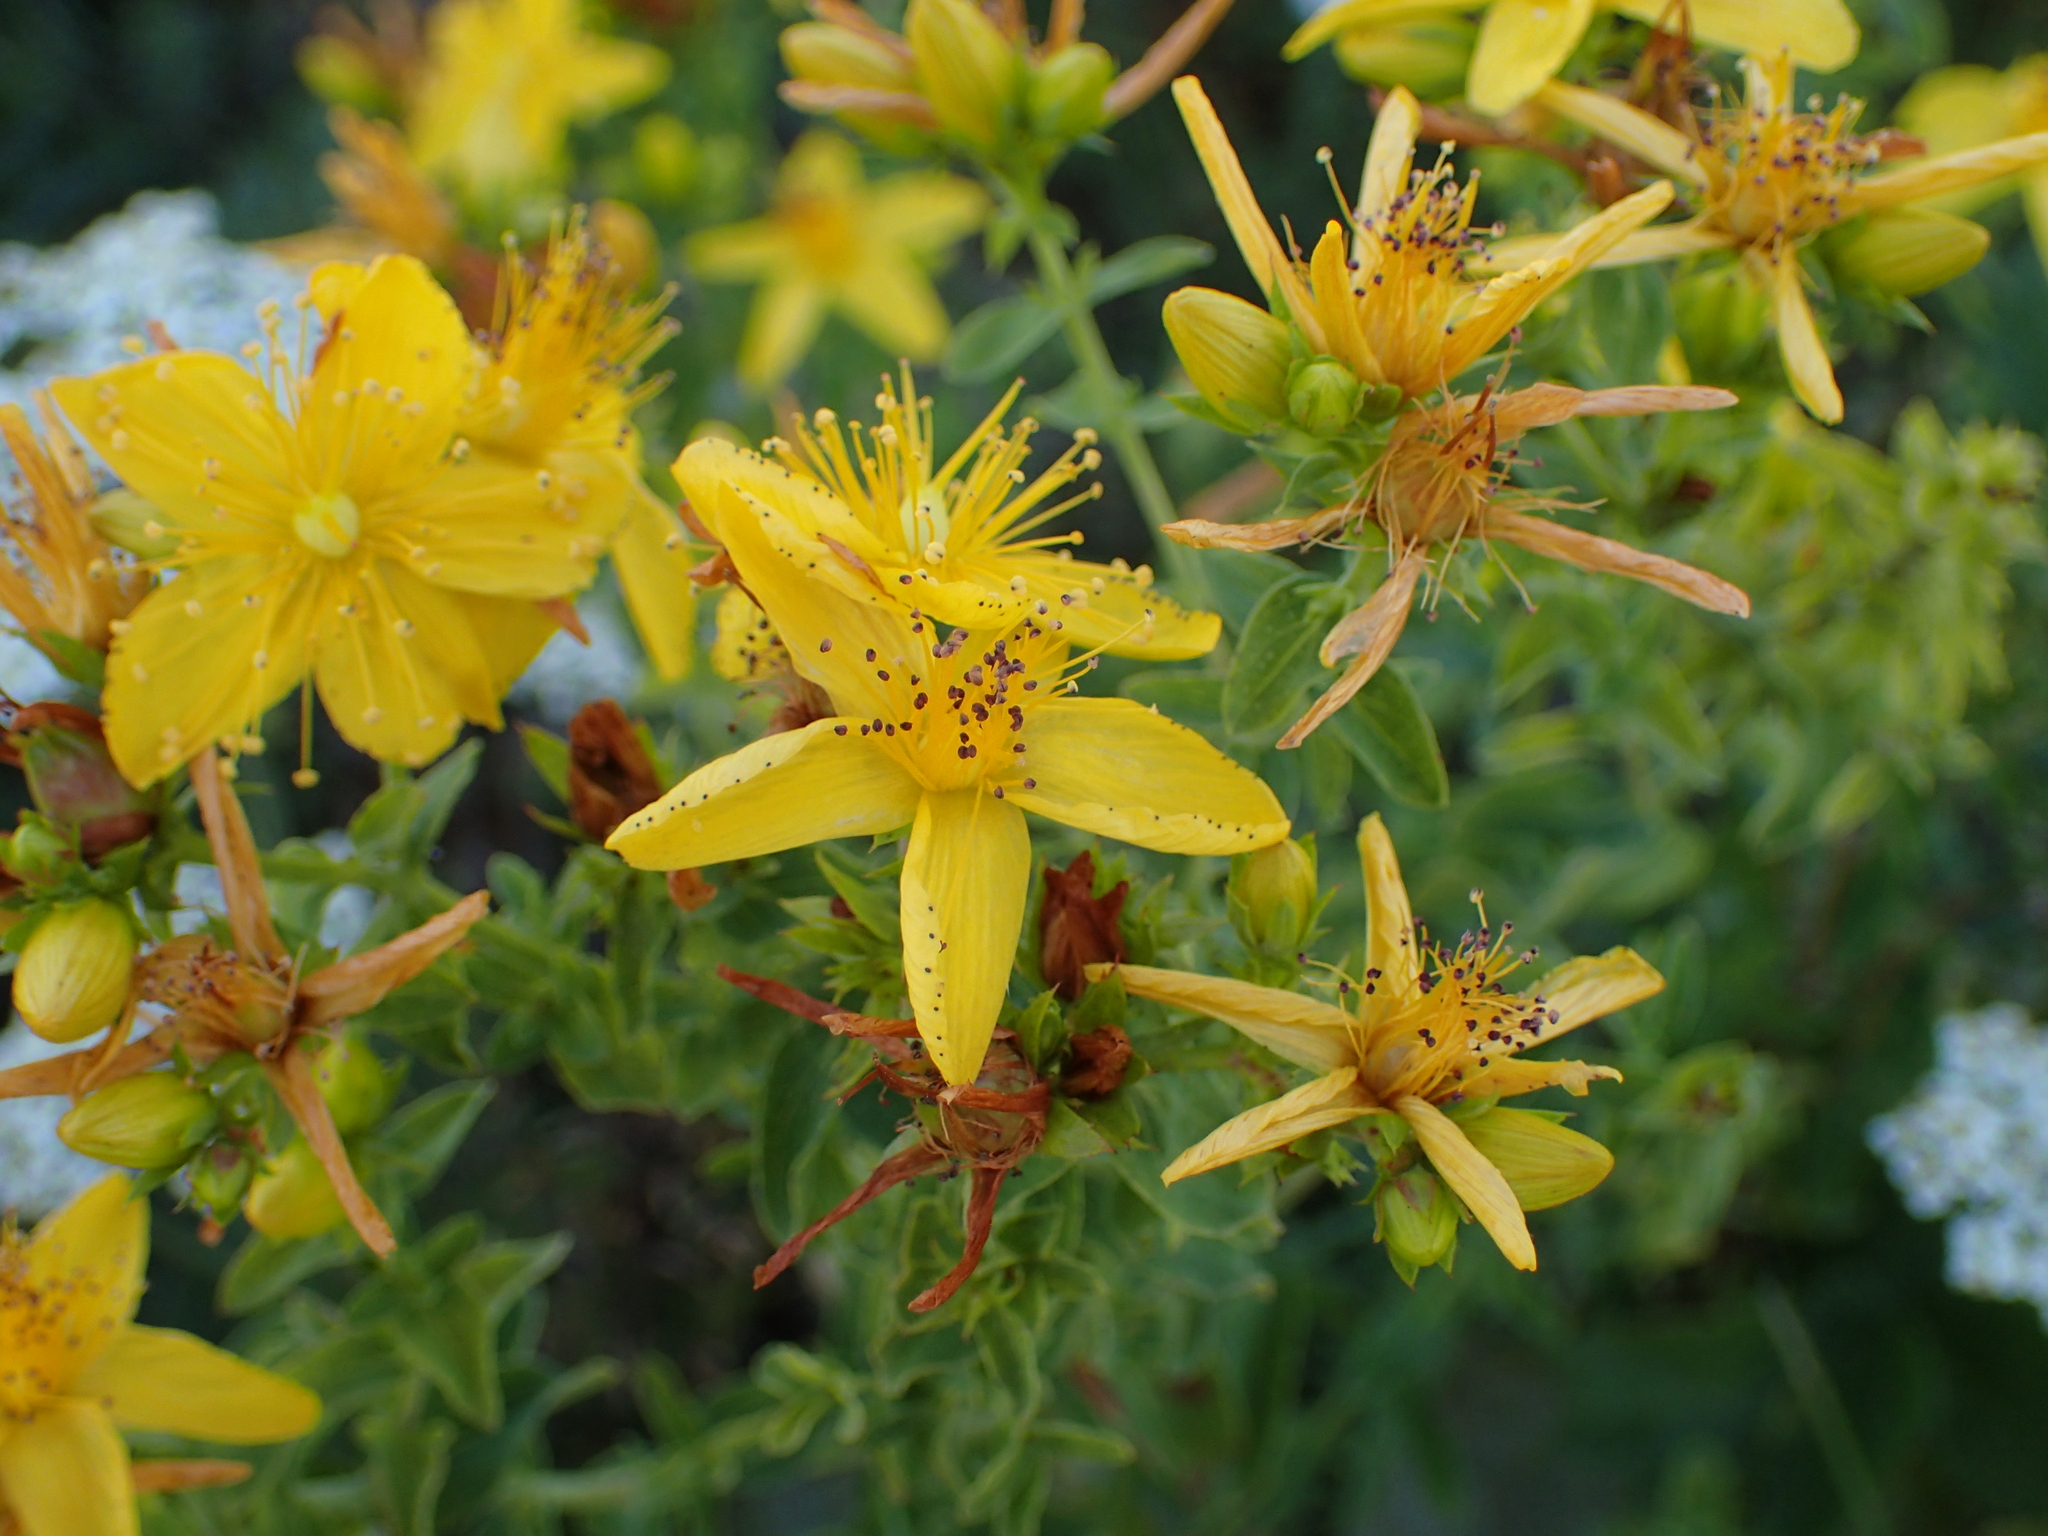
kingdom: Plantae
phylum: Tracheophyta
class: Magnoliopsida
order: Malpighiales
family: Hypericaceae
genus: Hypericum
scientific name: Hypericum perforatum
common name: Common st. johnswort
